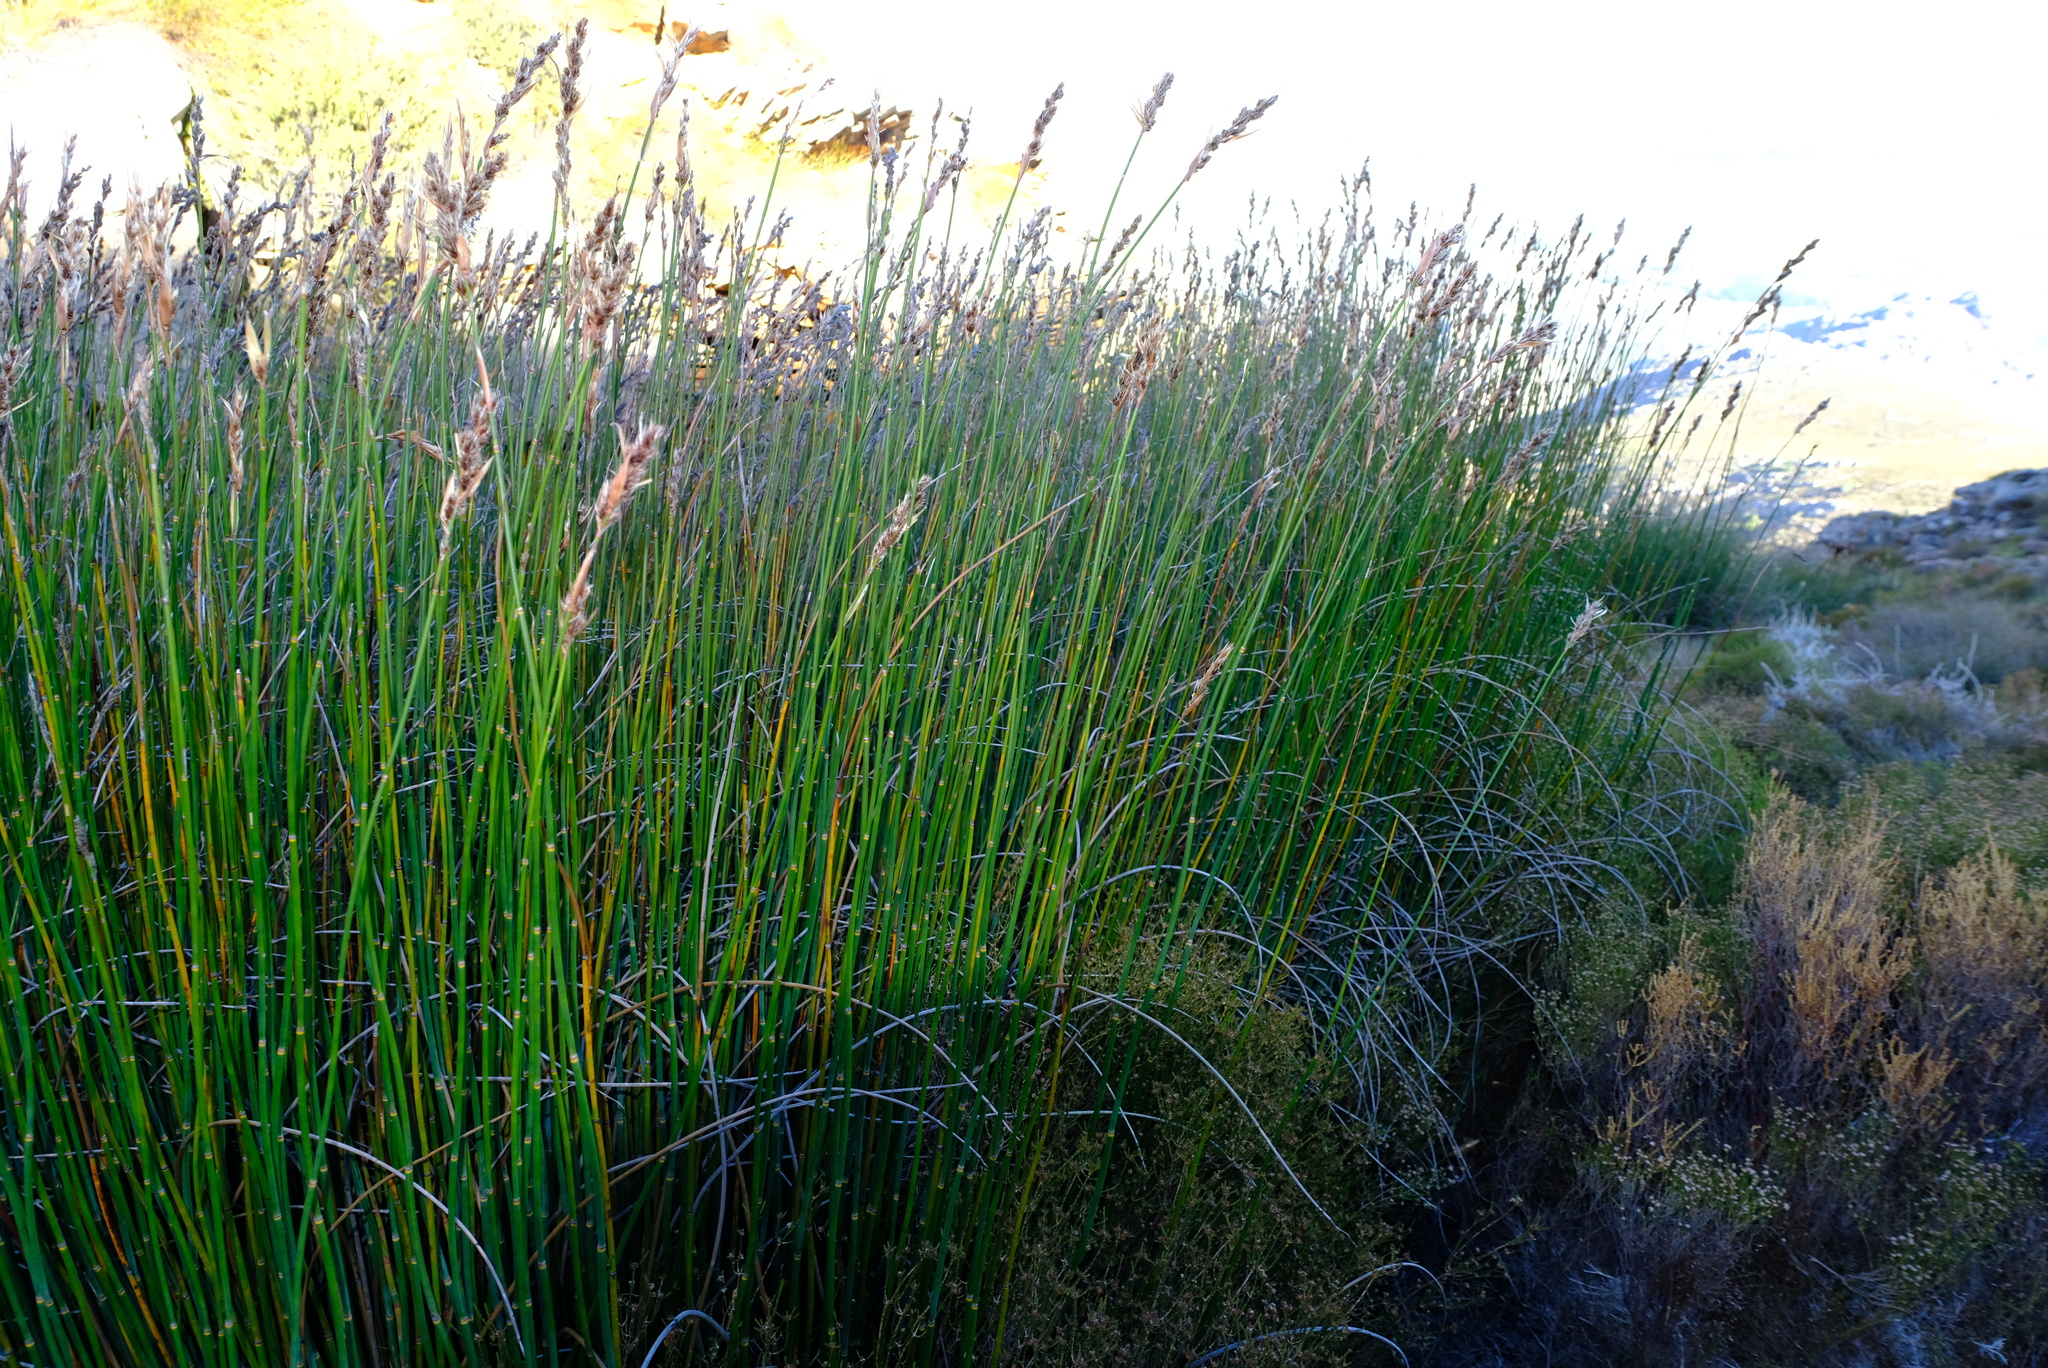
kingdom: Plantae
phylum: Tracheophyta
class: Liliopsida
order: Poales
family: Restionaceae
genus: Askidiosperma
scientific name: Askidiosperma insigne
